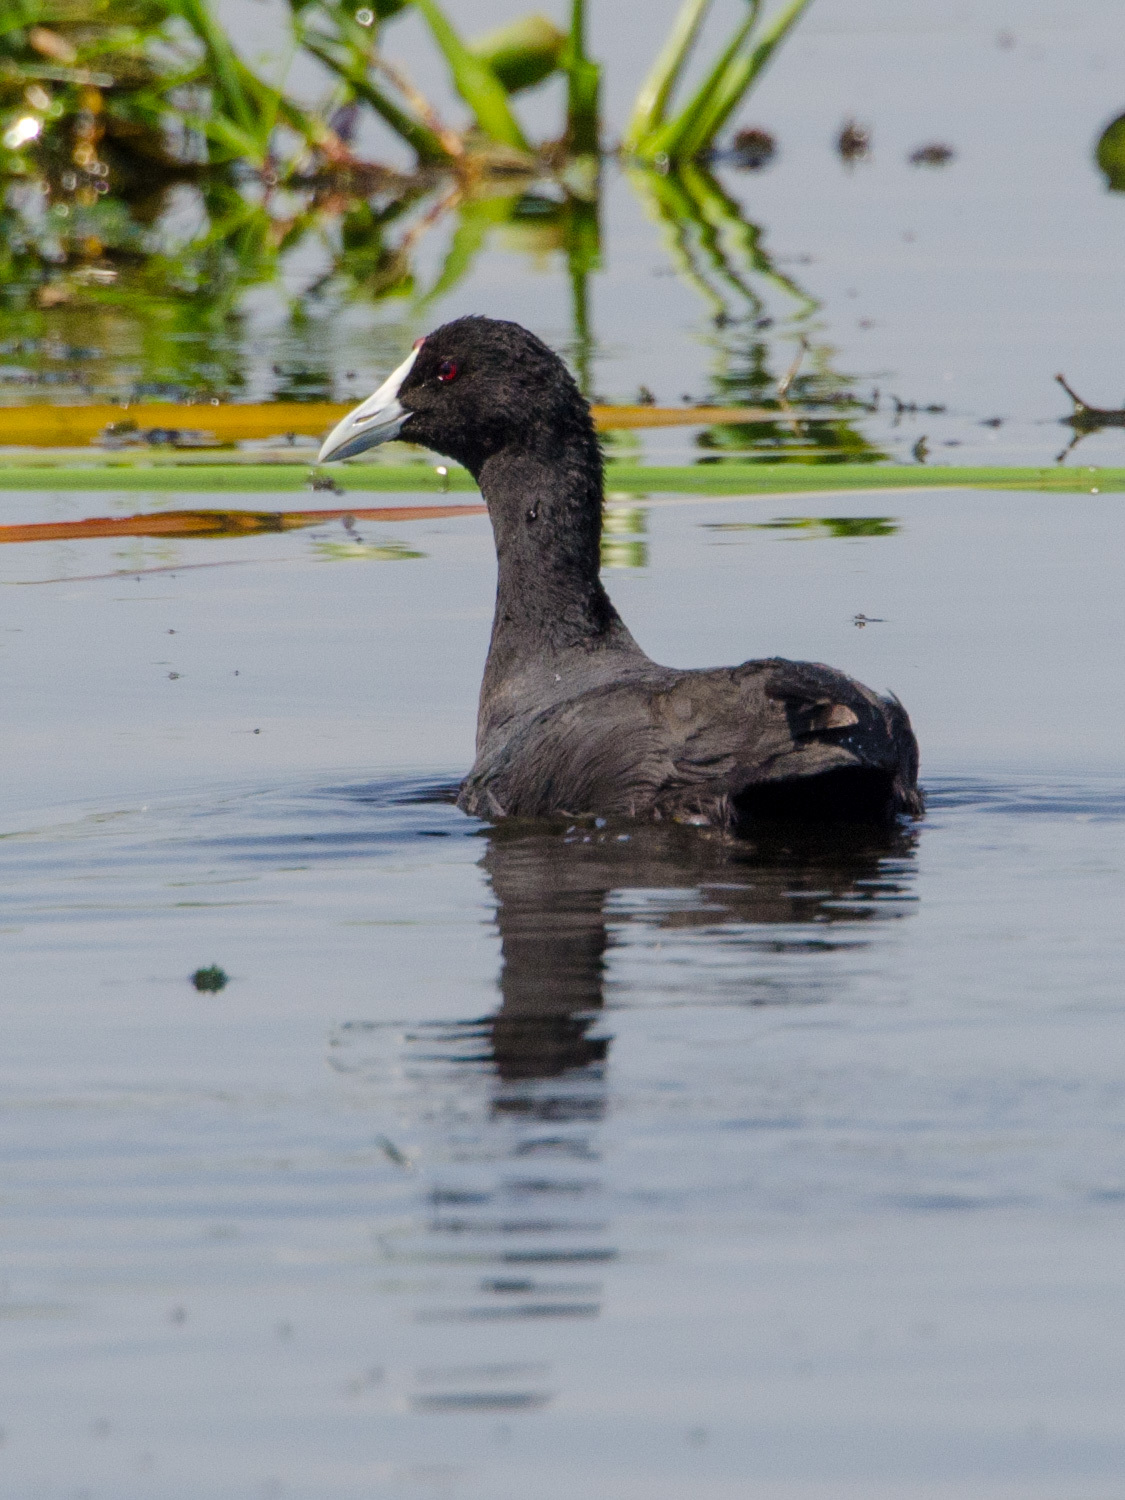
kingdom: Animalia
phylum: Chordata
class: Aves
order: Gruiformes
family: Rallidae
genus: Fulica
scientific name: Fulica cristata
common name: Red-knobbed coot
